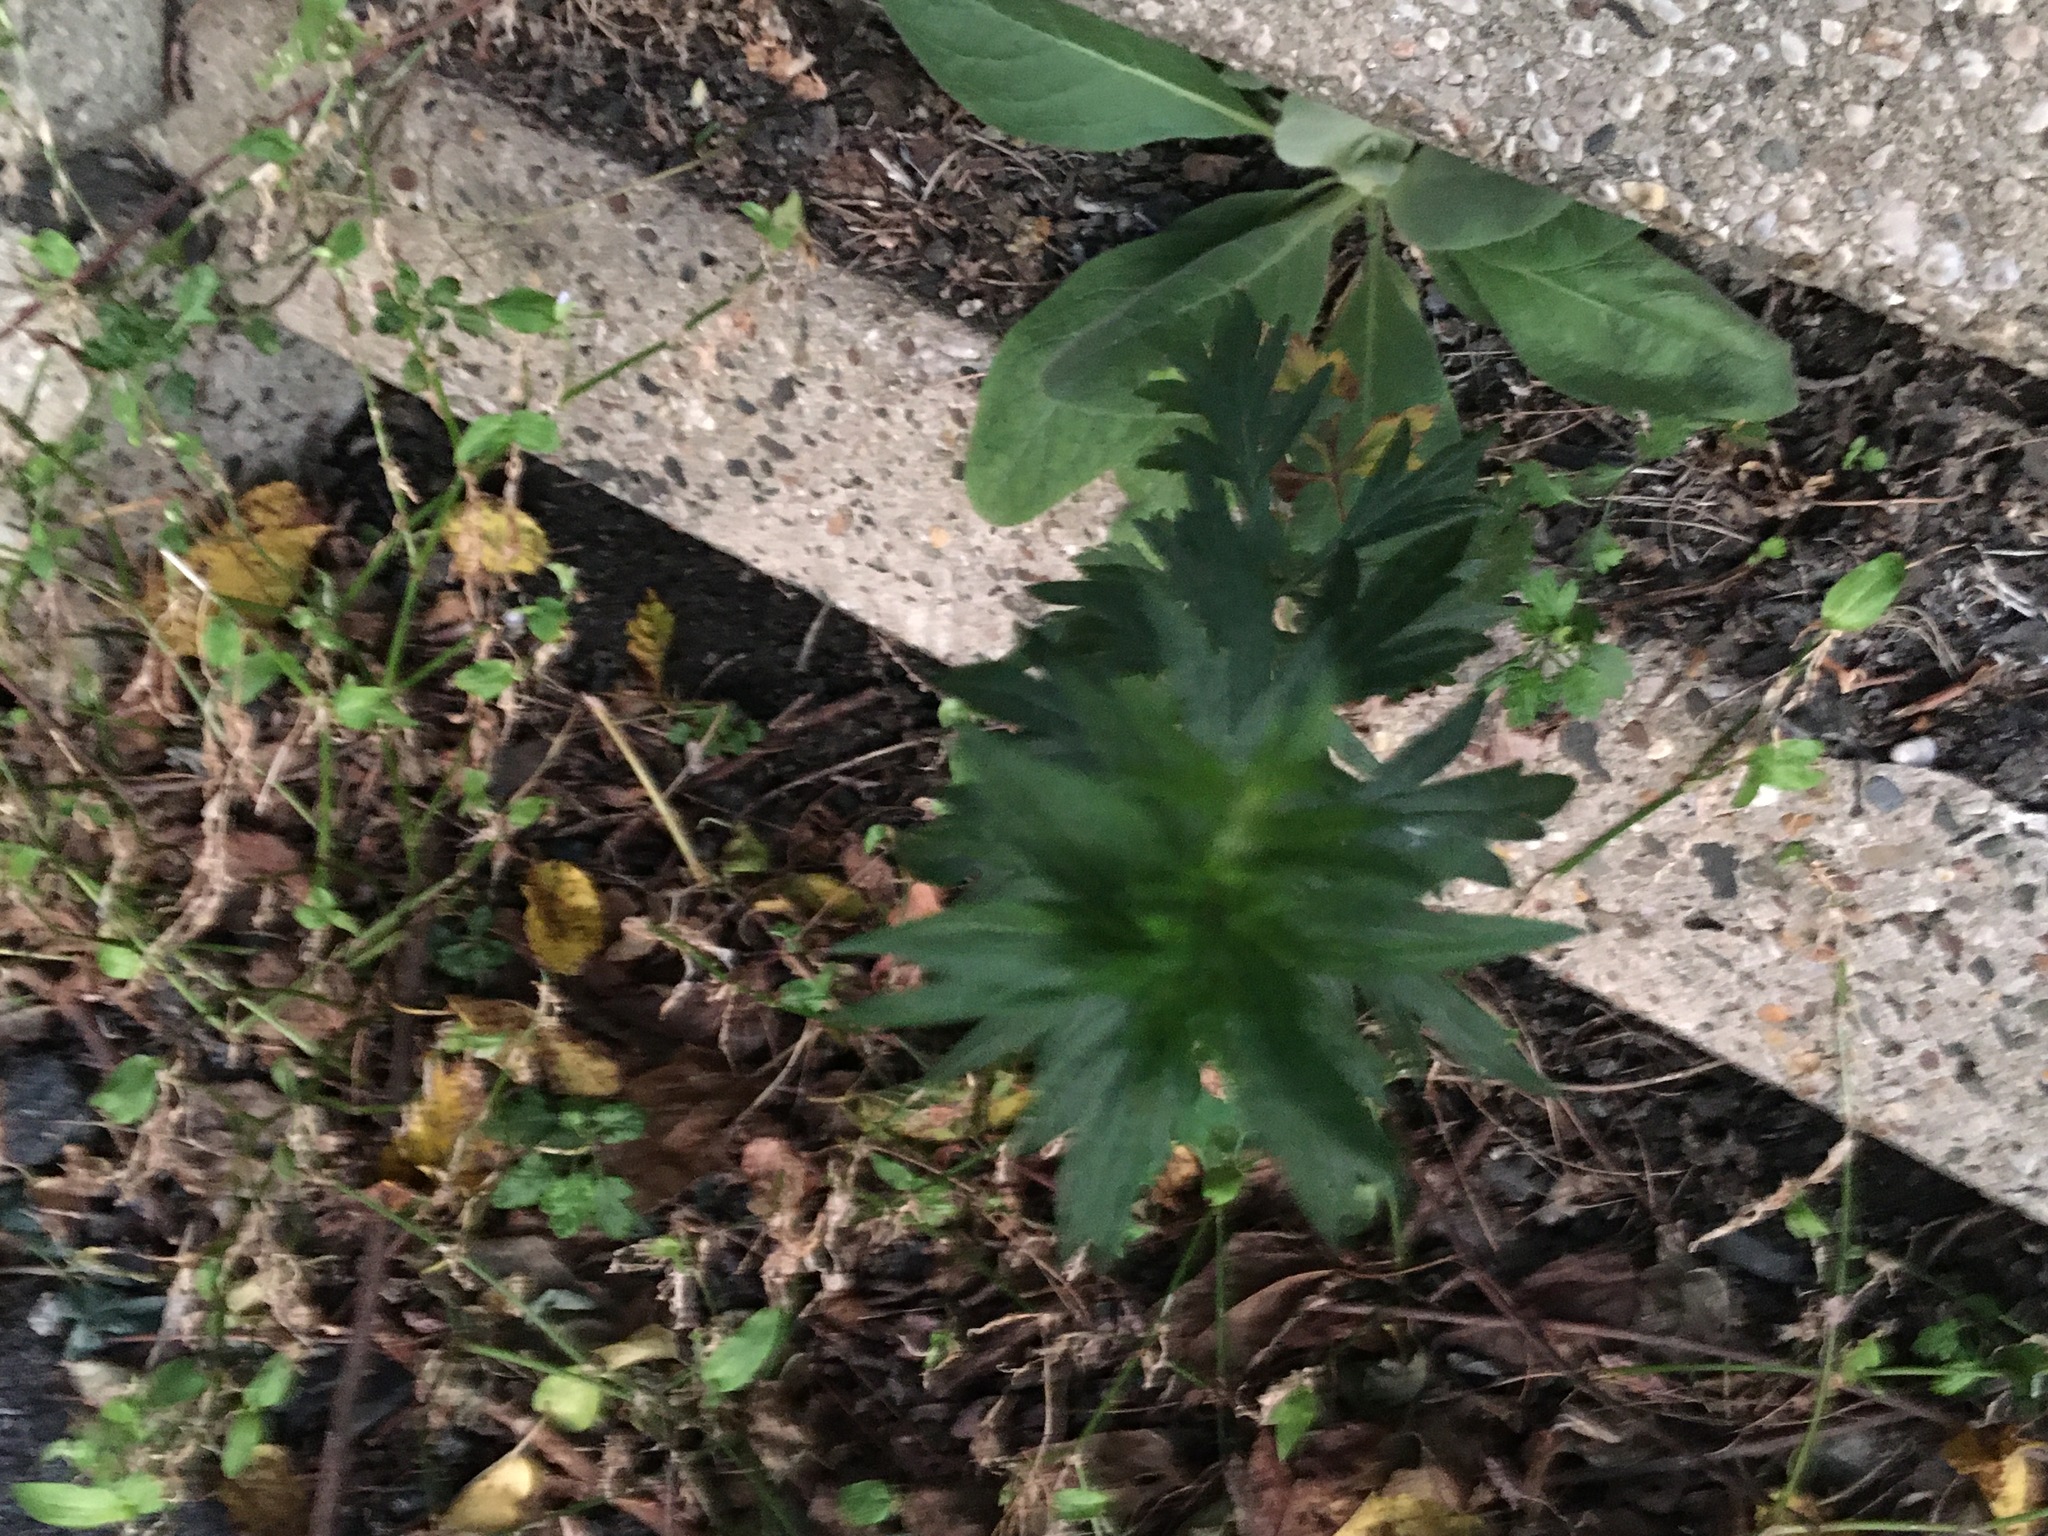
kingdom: Plantae
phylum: Tracheophyta
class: Magnoliopsida
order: Asterales
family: Asteraceae
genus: Artemisia
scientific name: Artemisia vulgaris
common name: Mugwort
